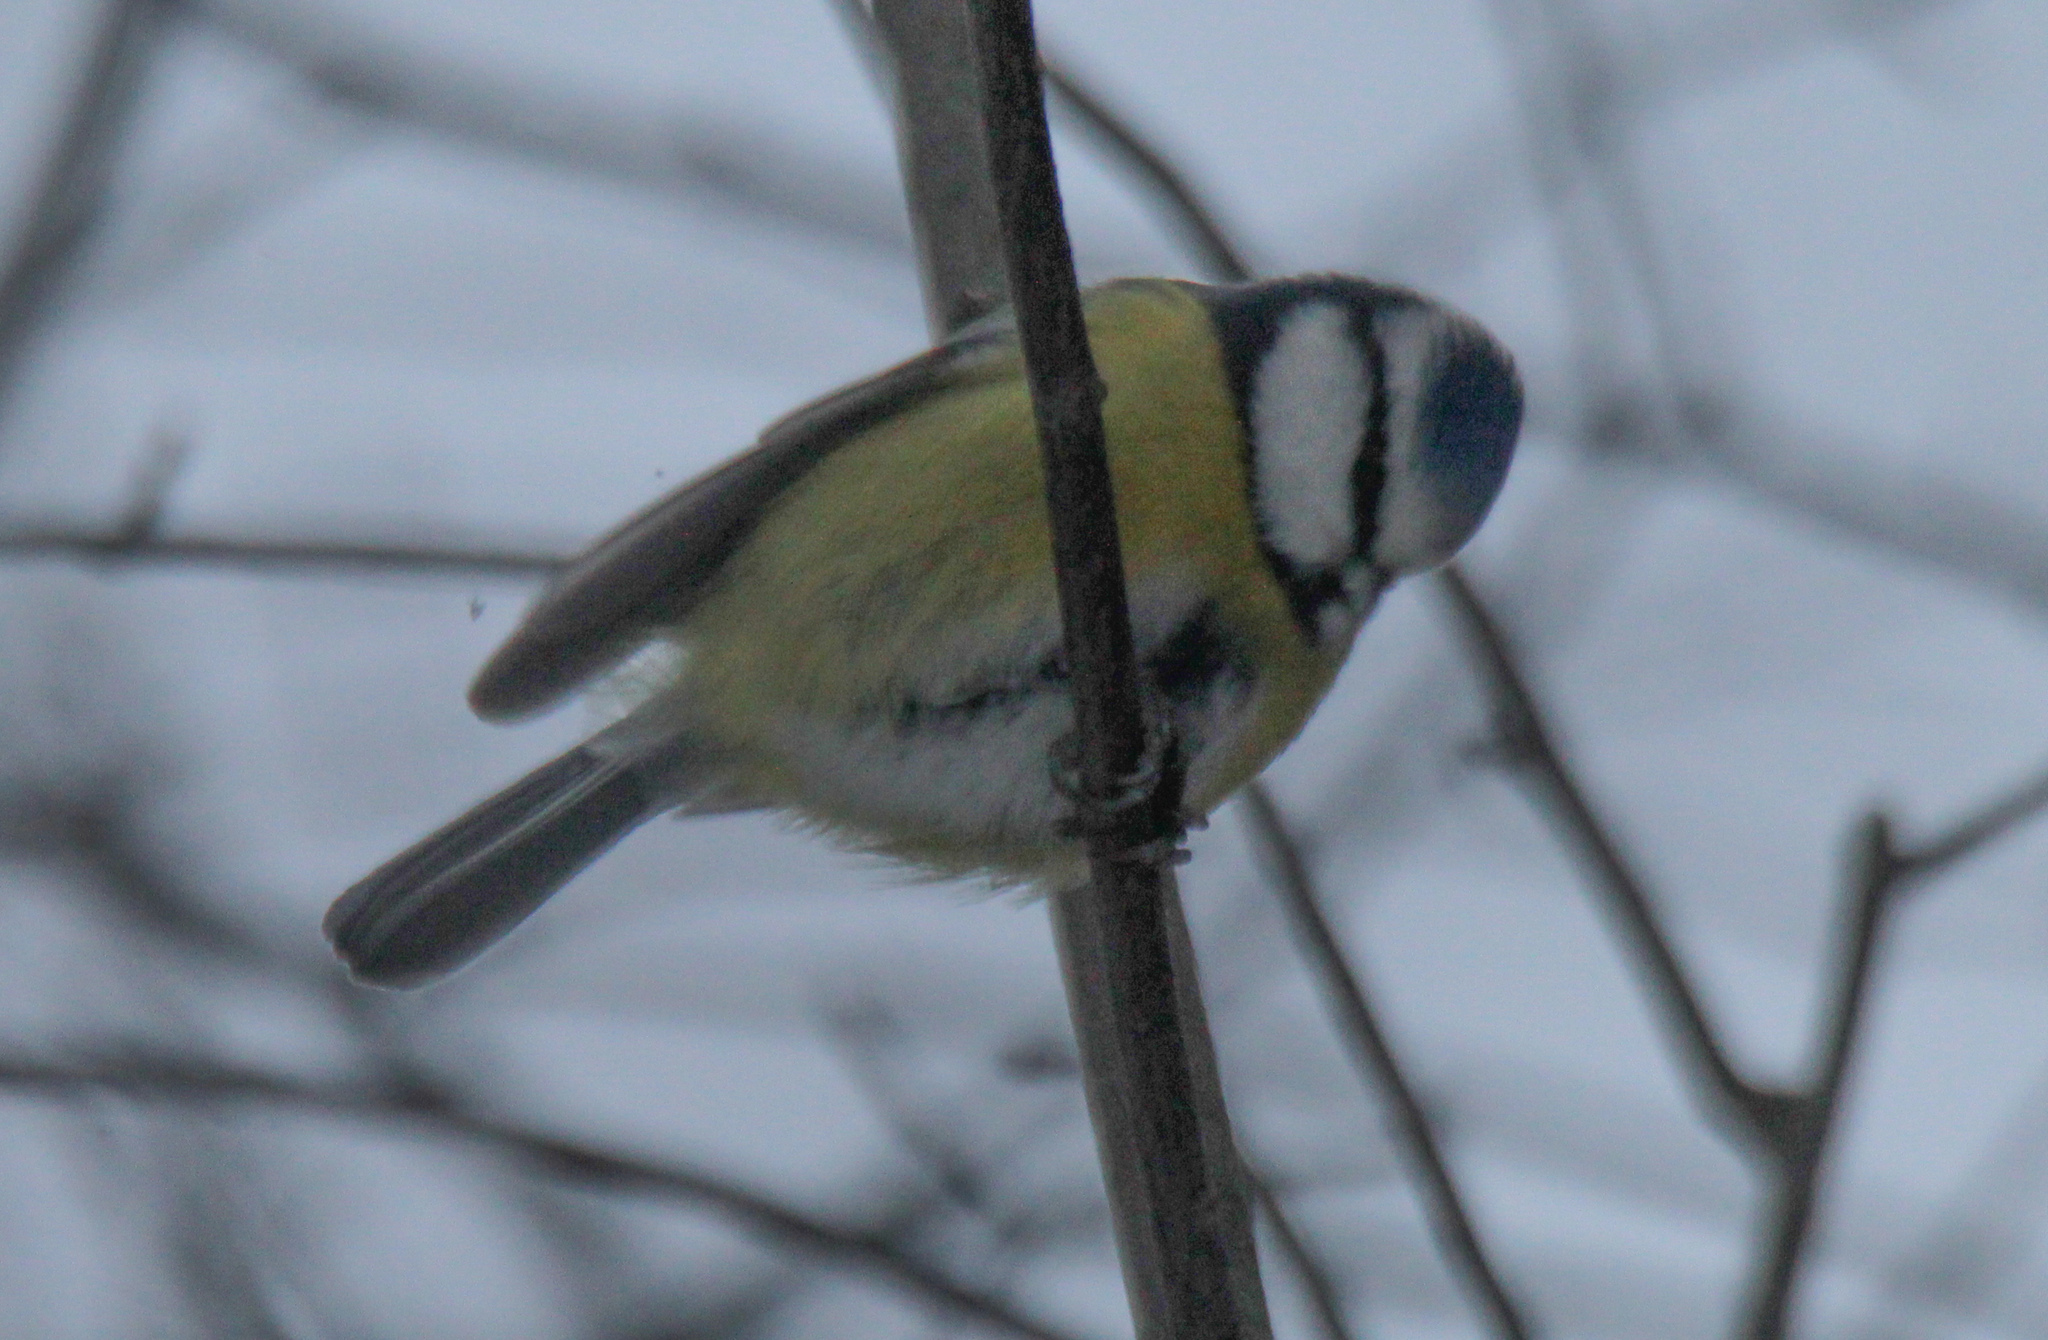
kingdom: Animalia
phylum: Chordata
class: Aves
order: Passeriformes
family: Paridae
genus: Cyanistes
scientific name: Cyanistes caeruleus
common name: Eurasian blue tit
